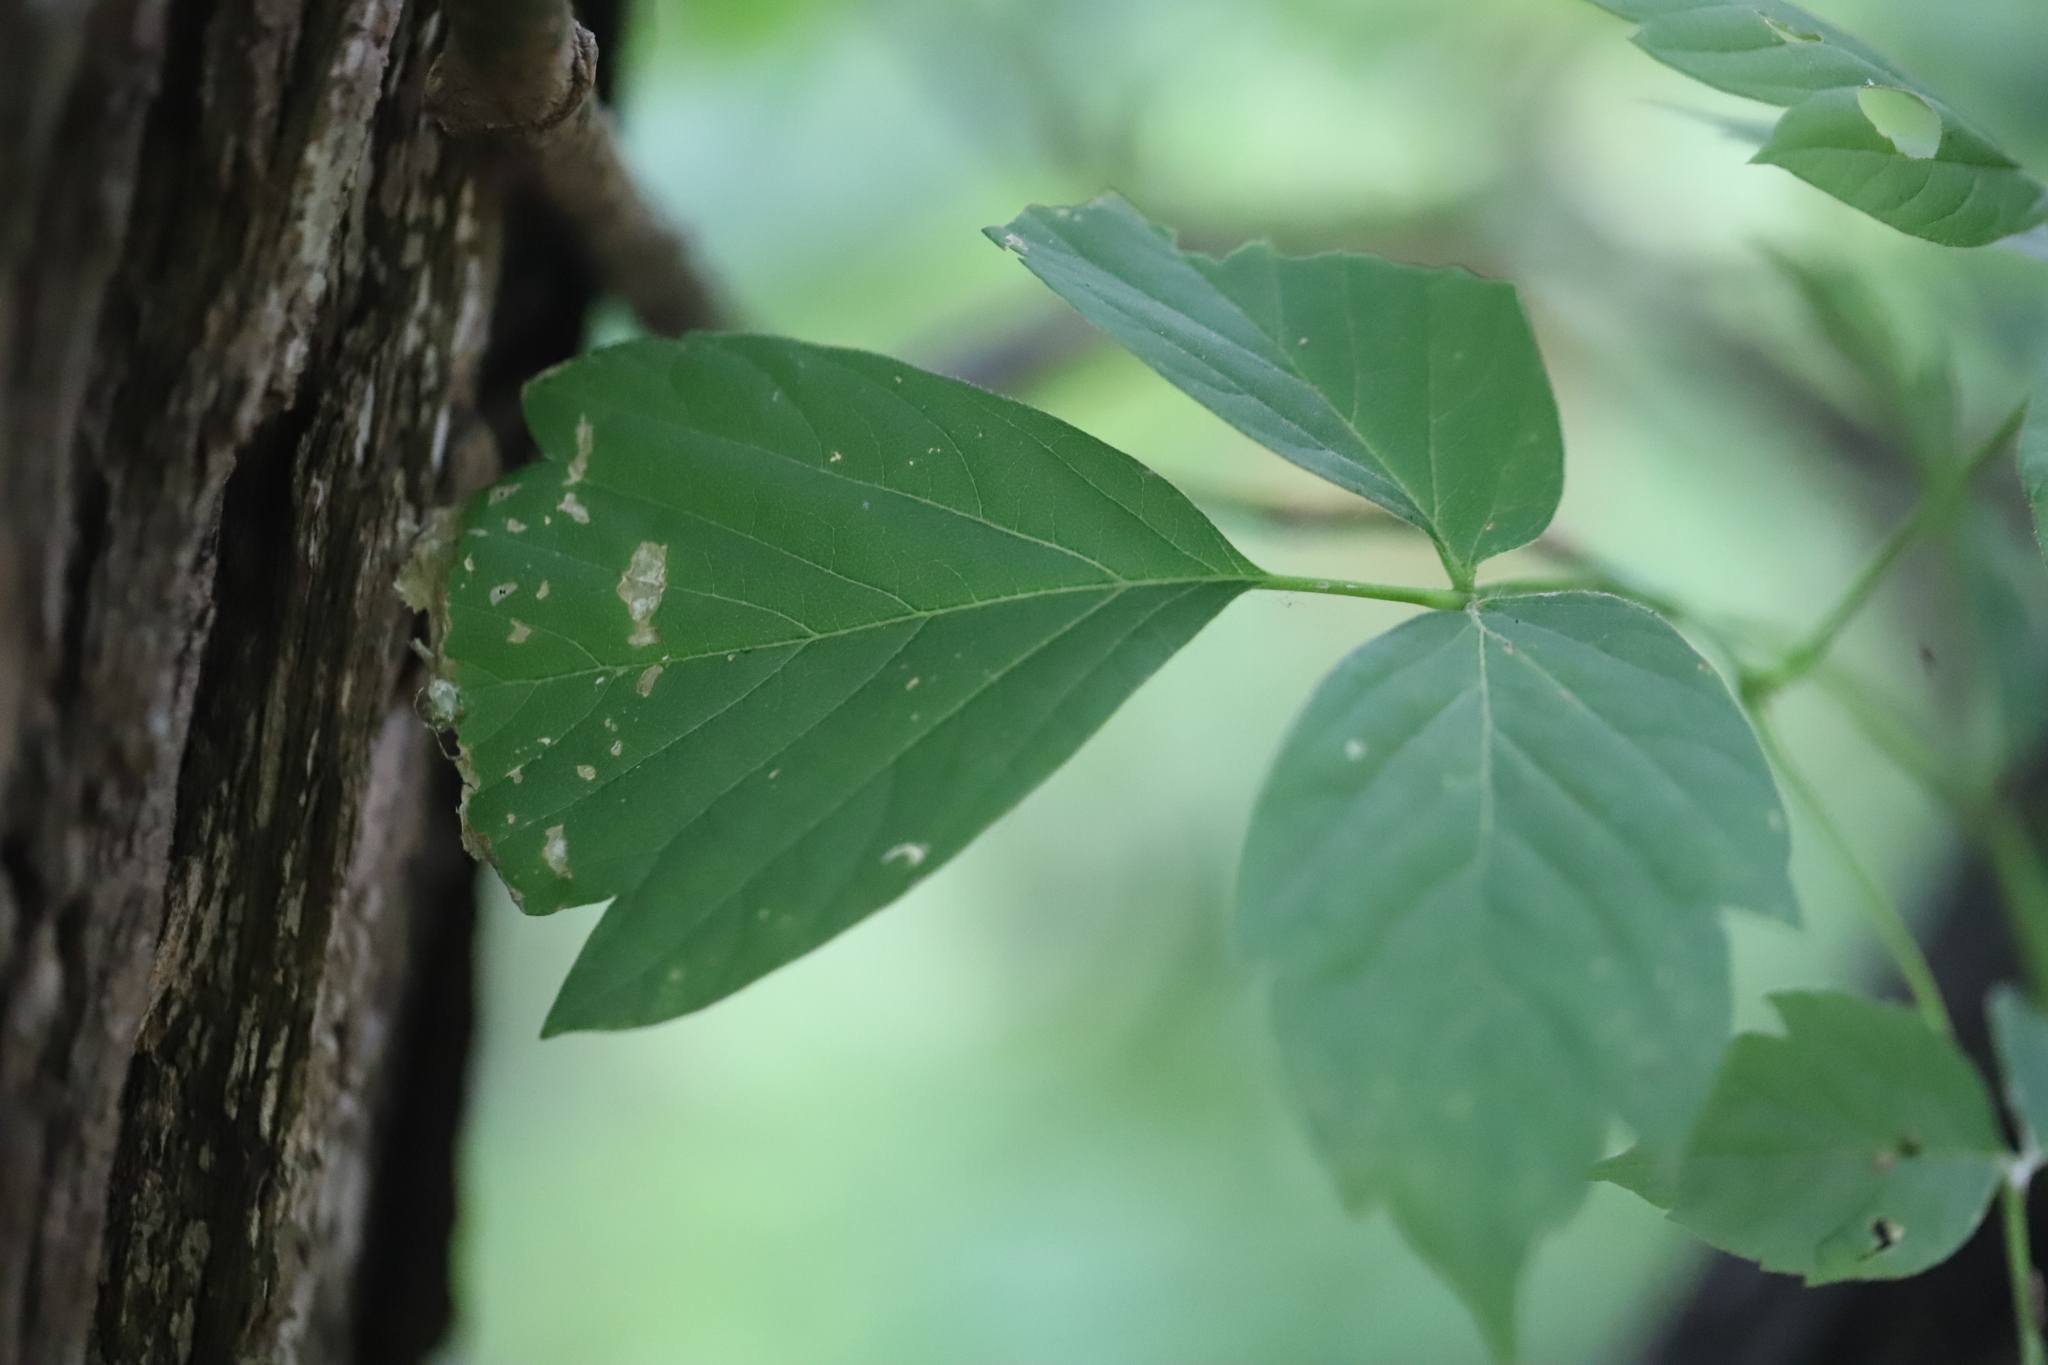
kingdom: Plantae
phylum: Tracheophyta
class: Magnoliopsida
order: Sapindales
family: Sapindaceae
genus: Acer
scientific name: Acer negundo
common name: Ashleaf maple
